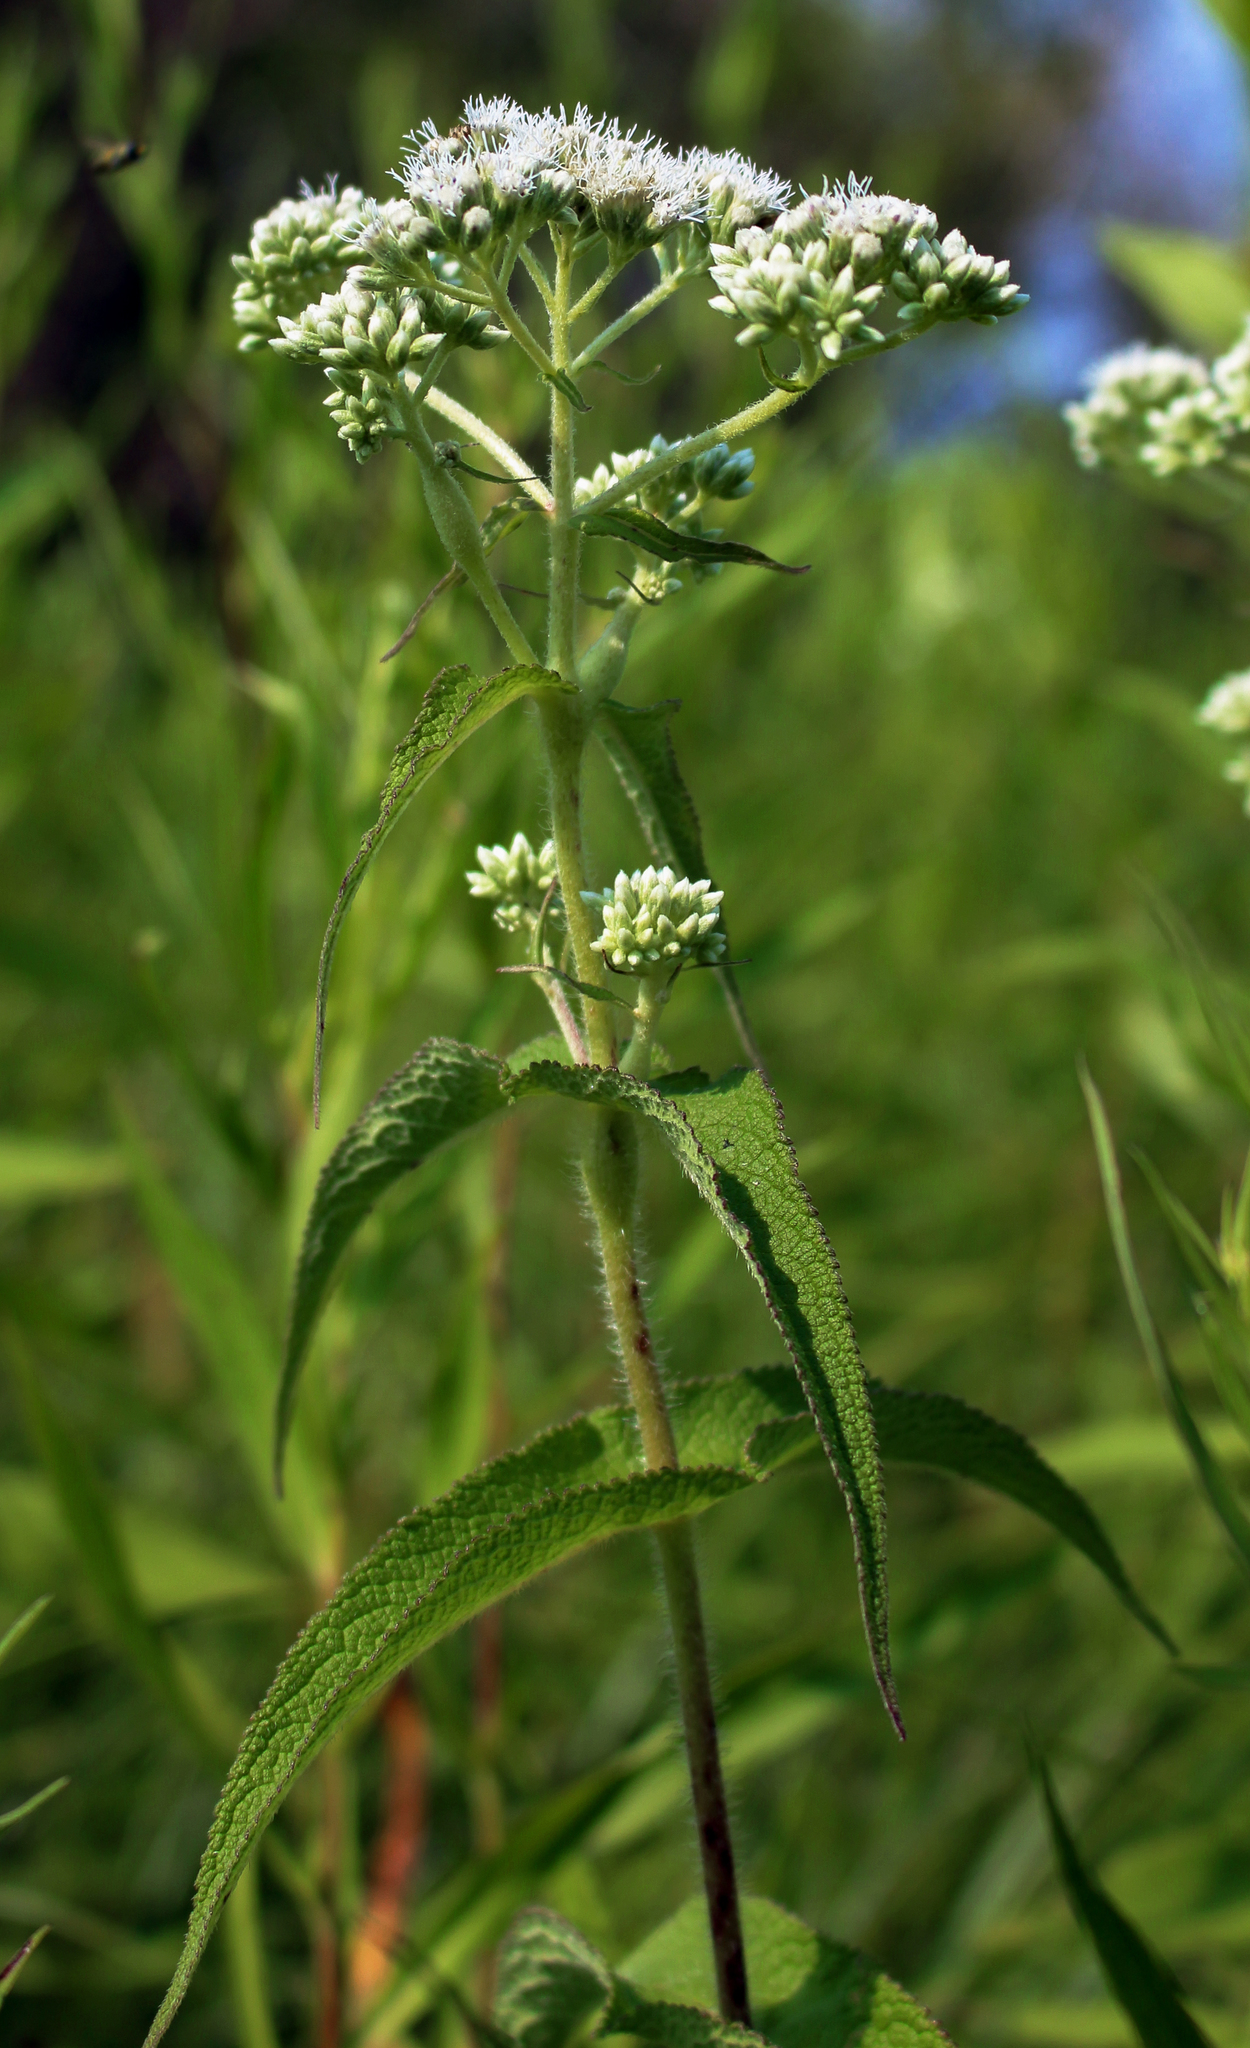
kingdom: Plantae
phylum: Tracheophyta
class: Magnoliopsida
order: Asterales
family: Asteraceae
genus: Eupatorium
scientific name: Eupatorium perfoliatum
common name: Boneset
